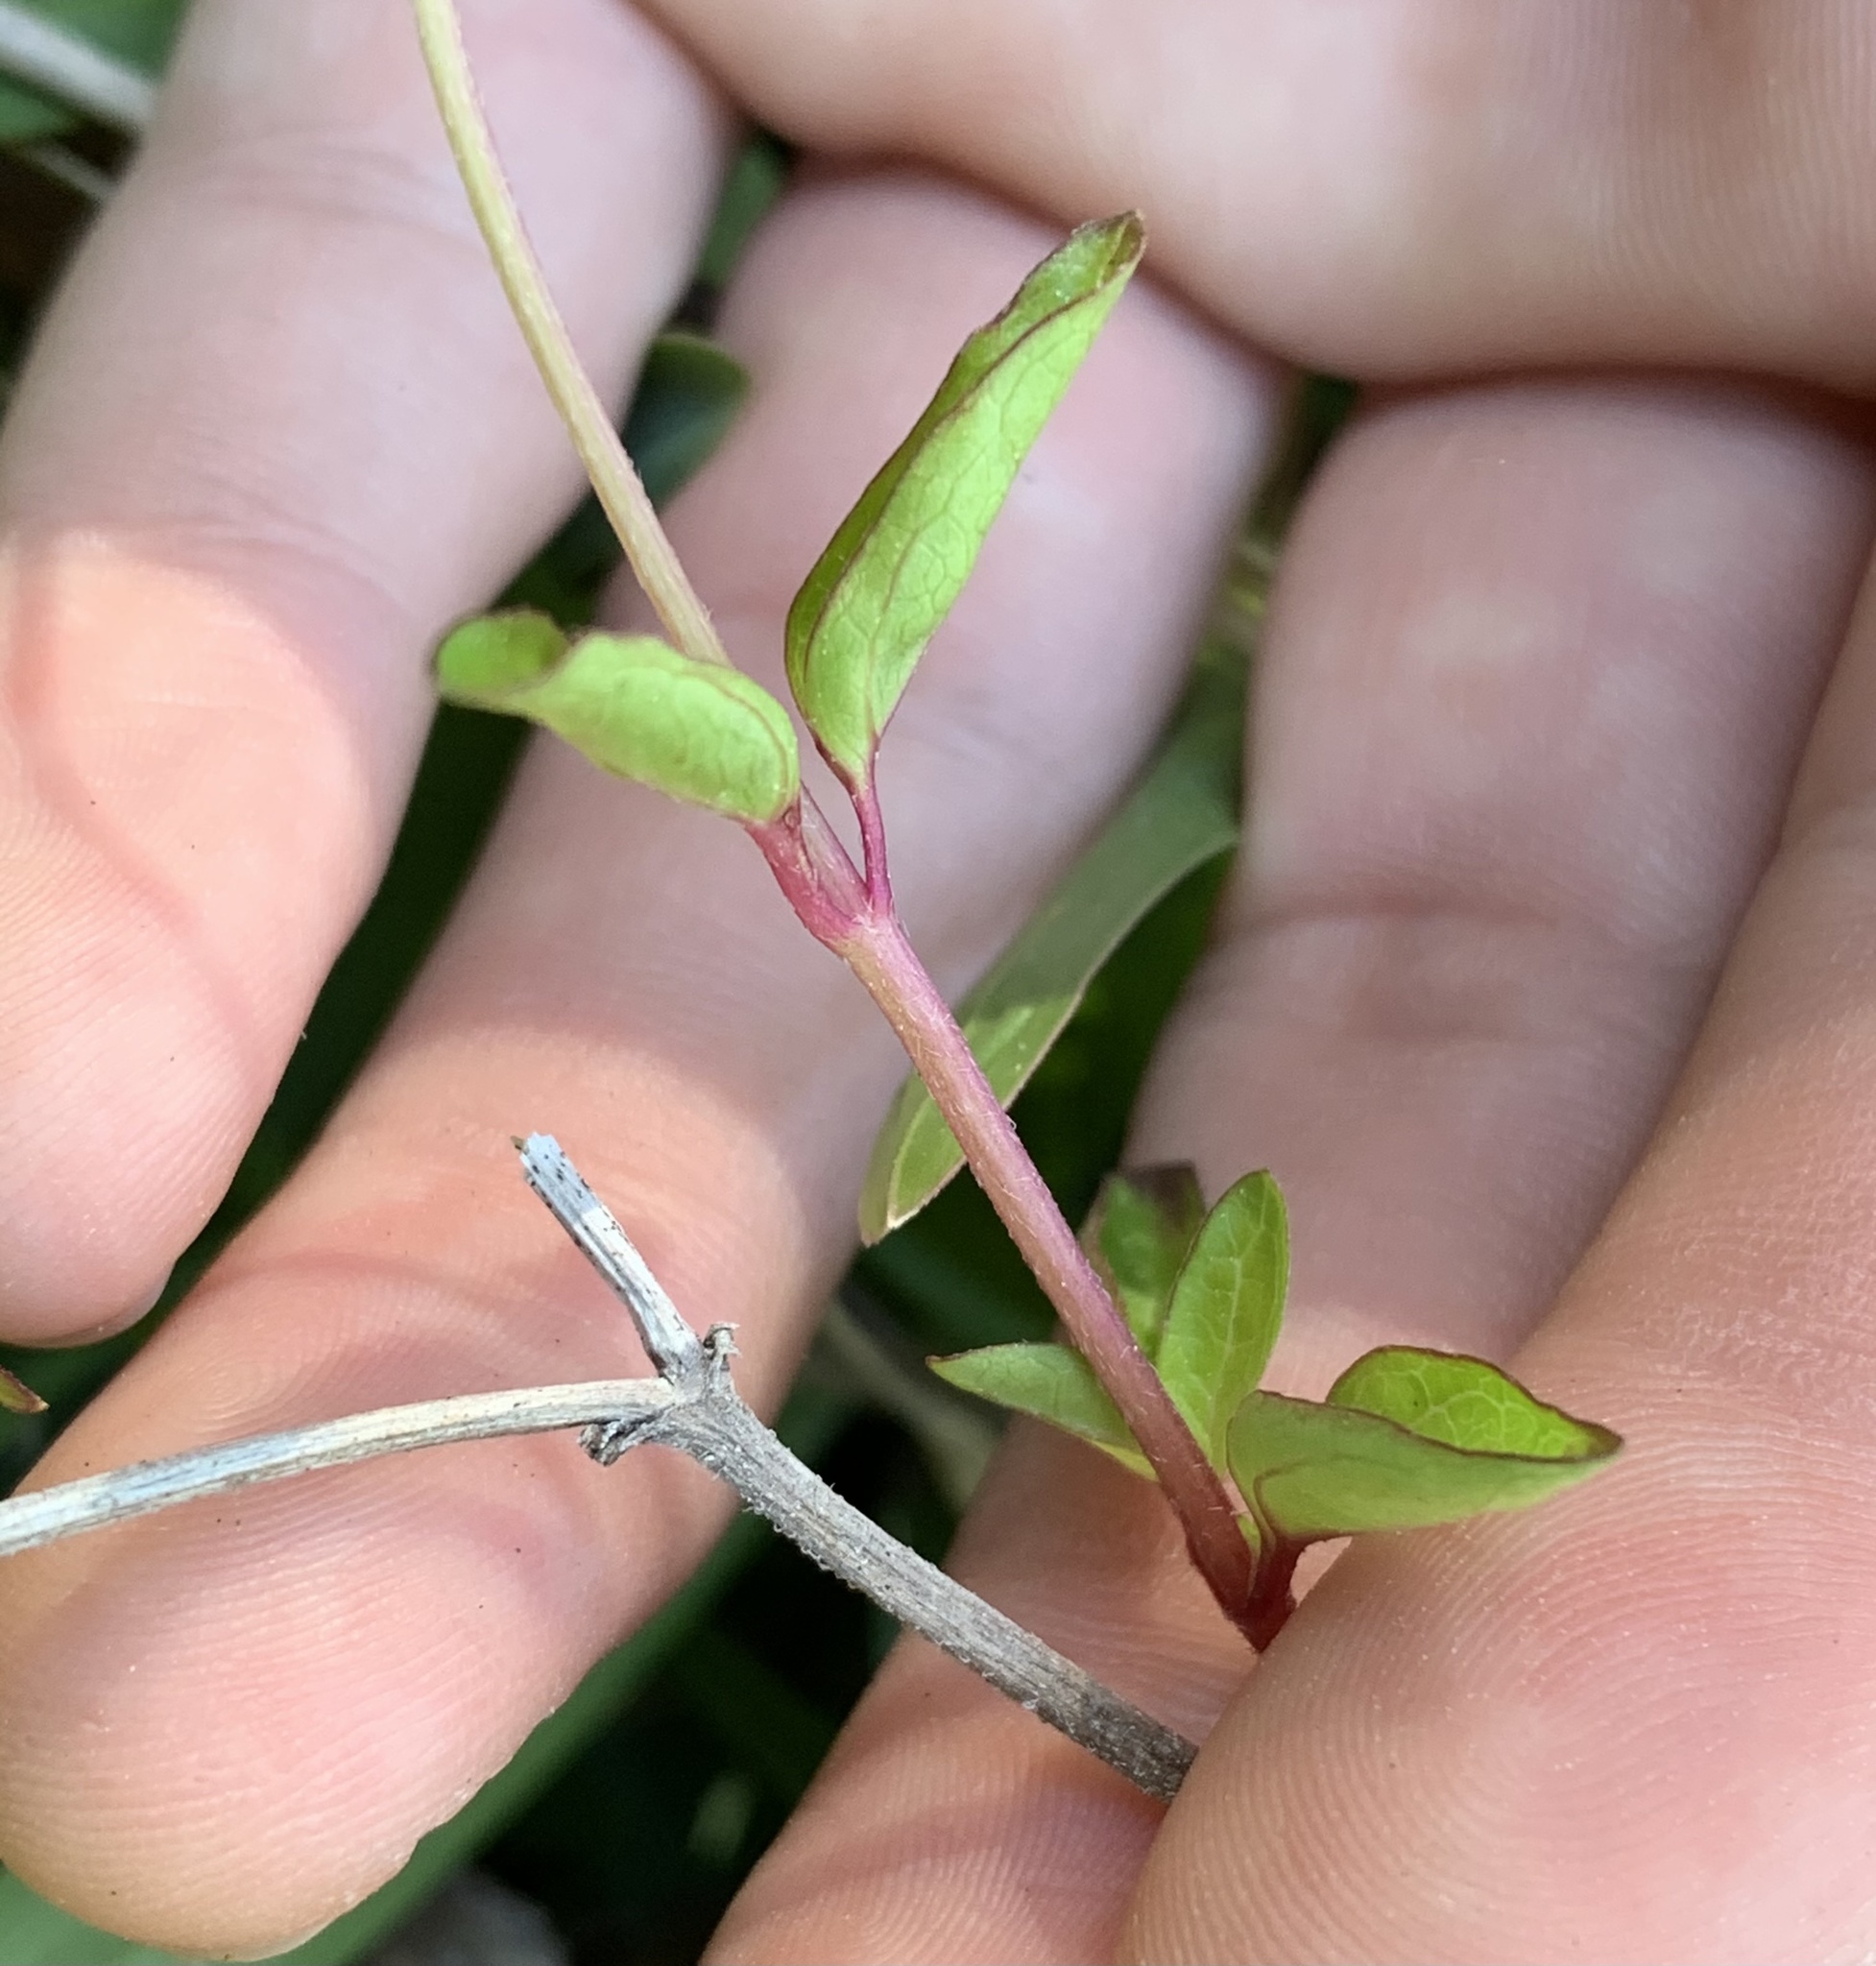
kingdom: Plantae
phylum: Tracheophyta
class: Magnoliopsida
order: Asterales
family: Asteraceae
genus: Acmella
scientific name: Acmella repens
